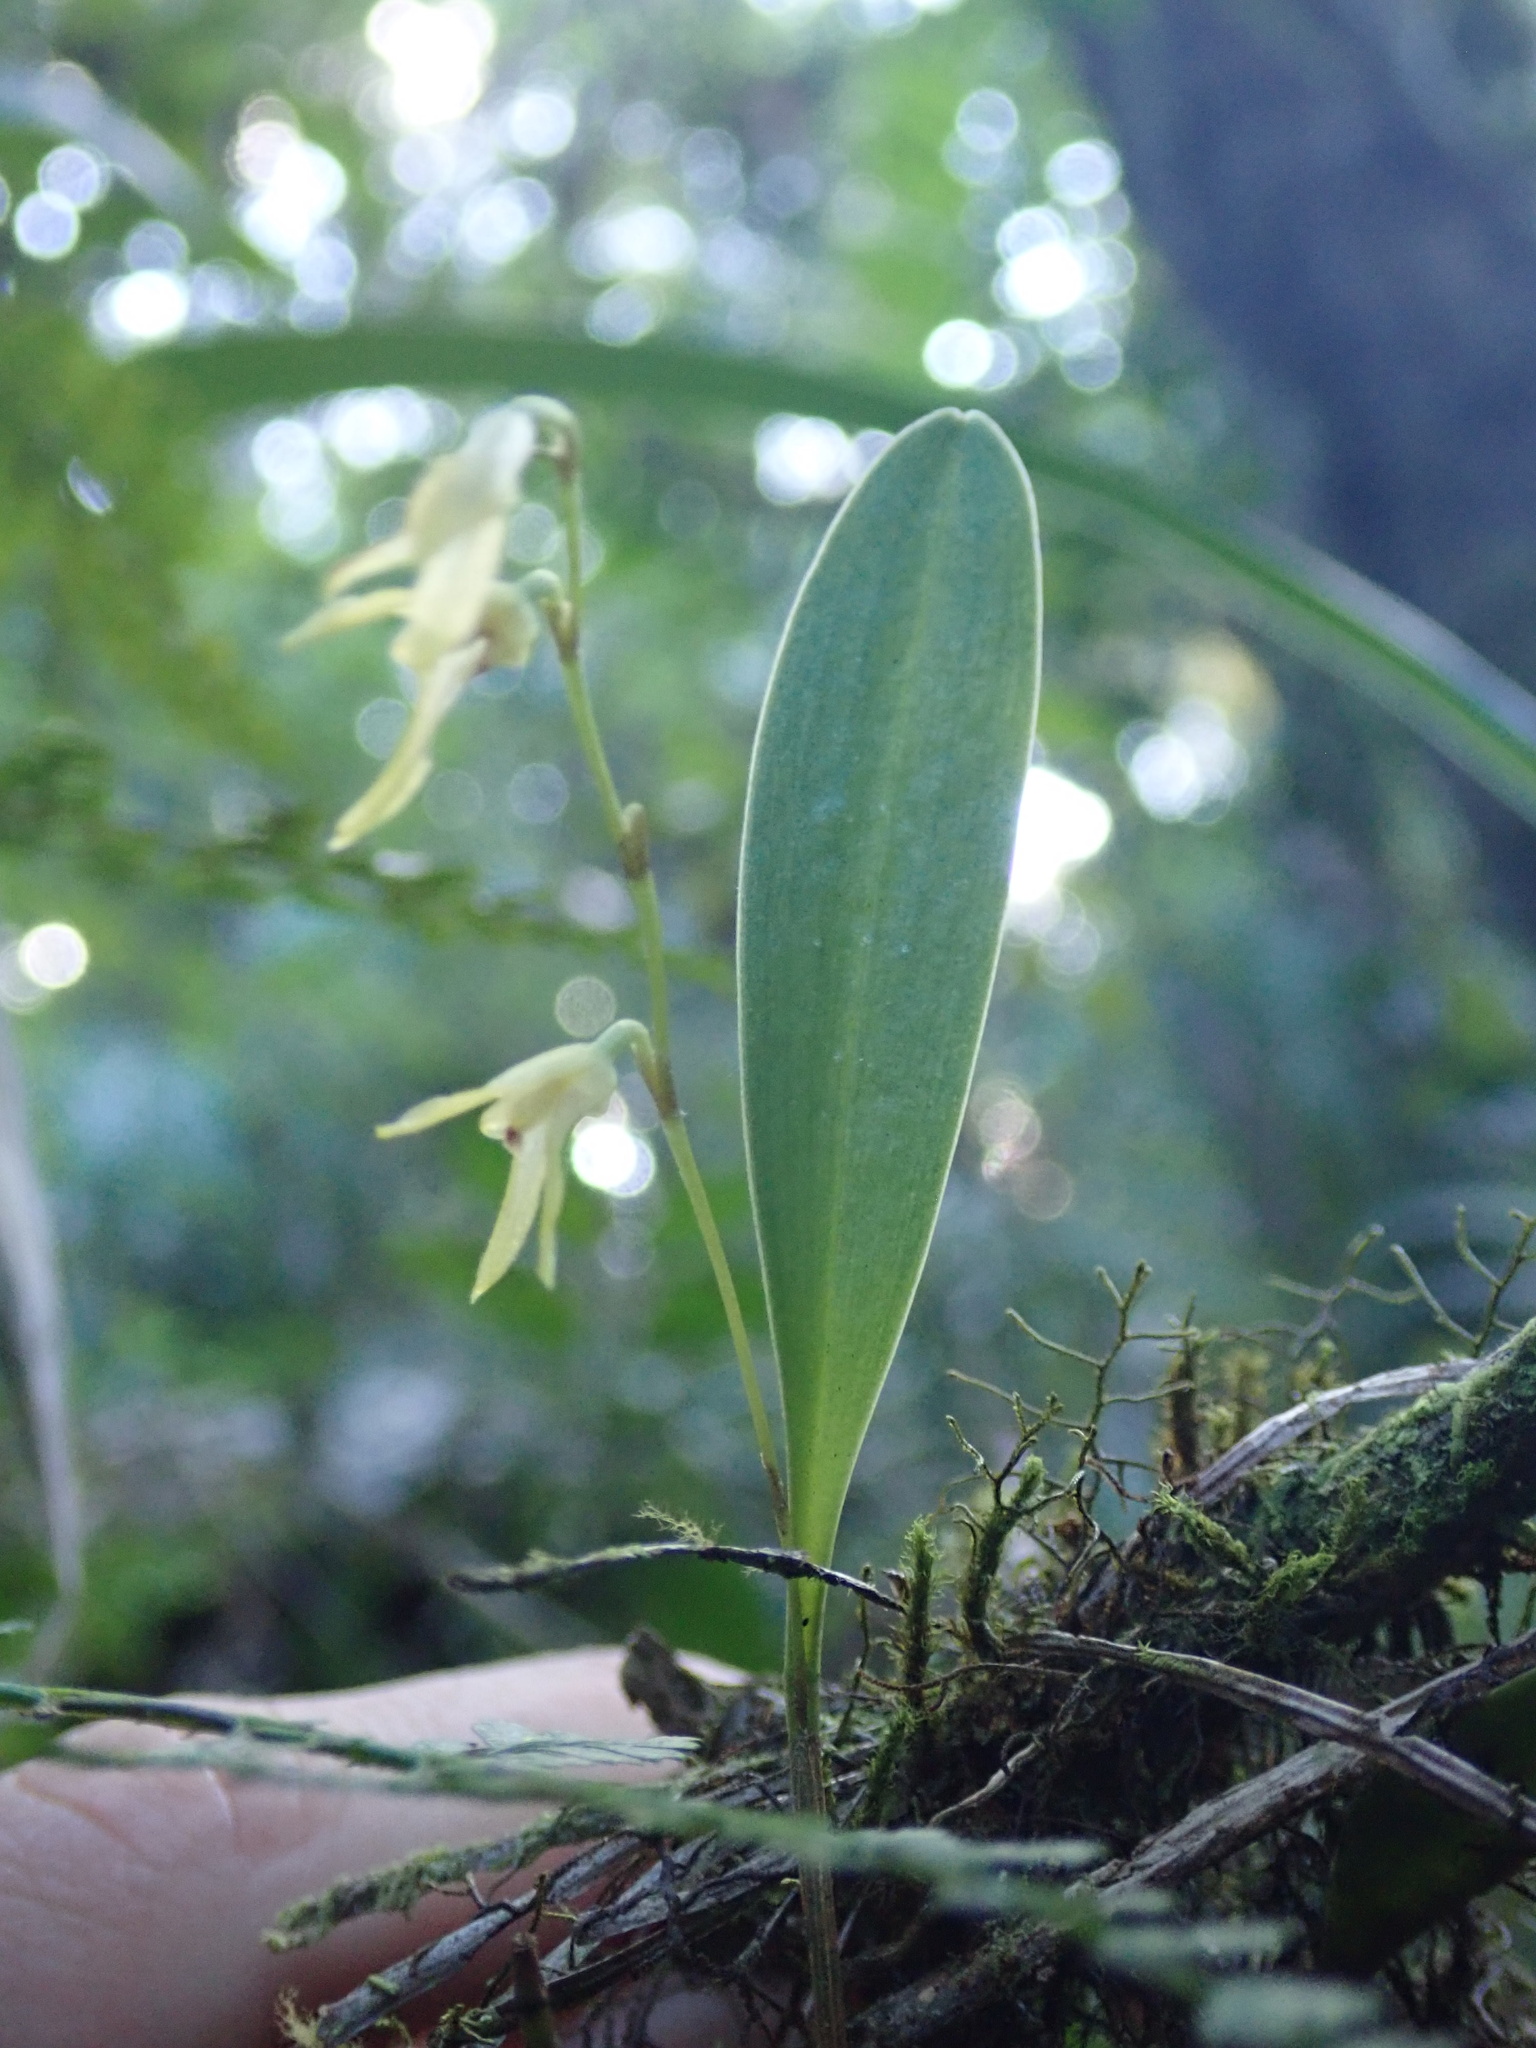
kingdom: Plantae
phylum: Tracheophyta
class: Liliopsida
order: Asparagales
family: Orchidaceae
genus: Stelis
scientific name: Stelis platystylis
